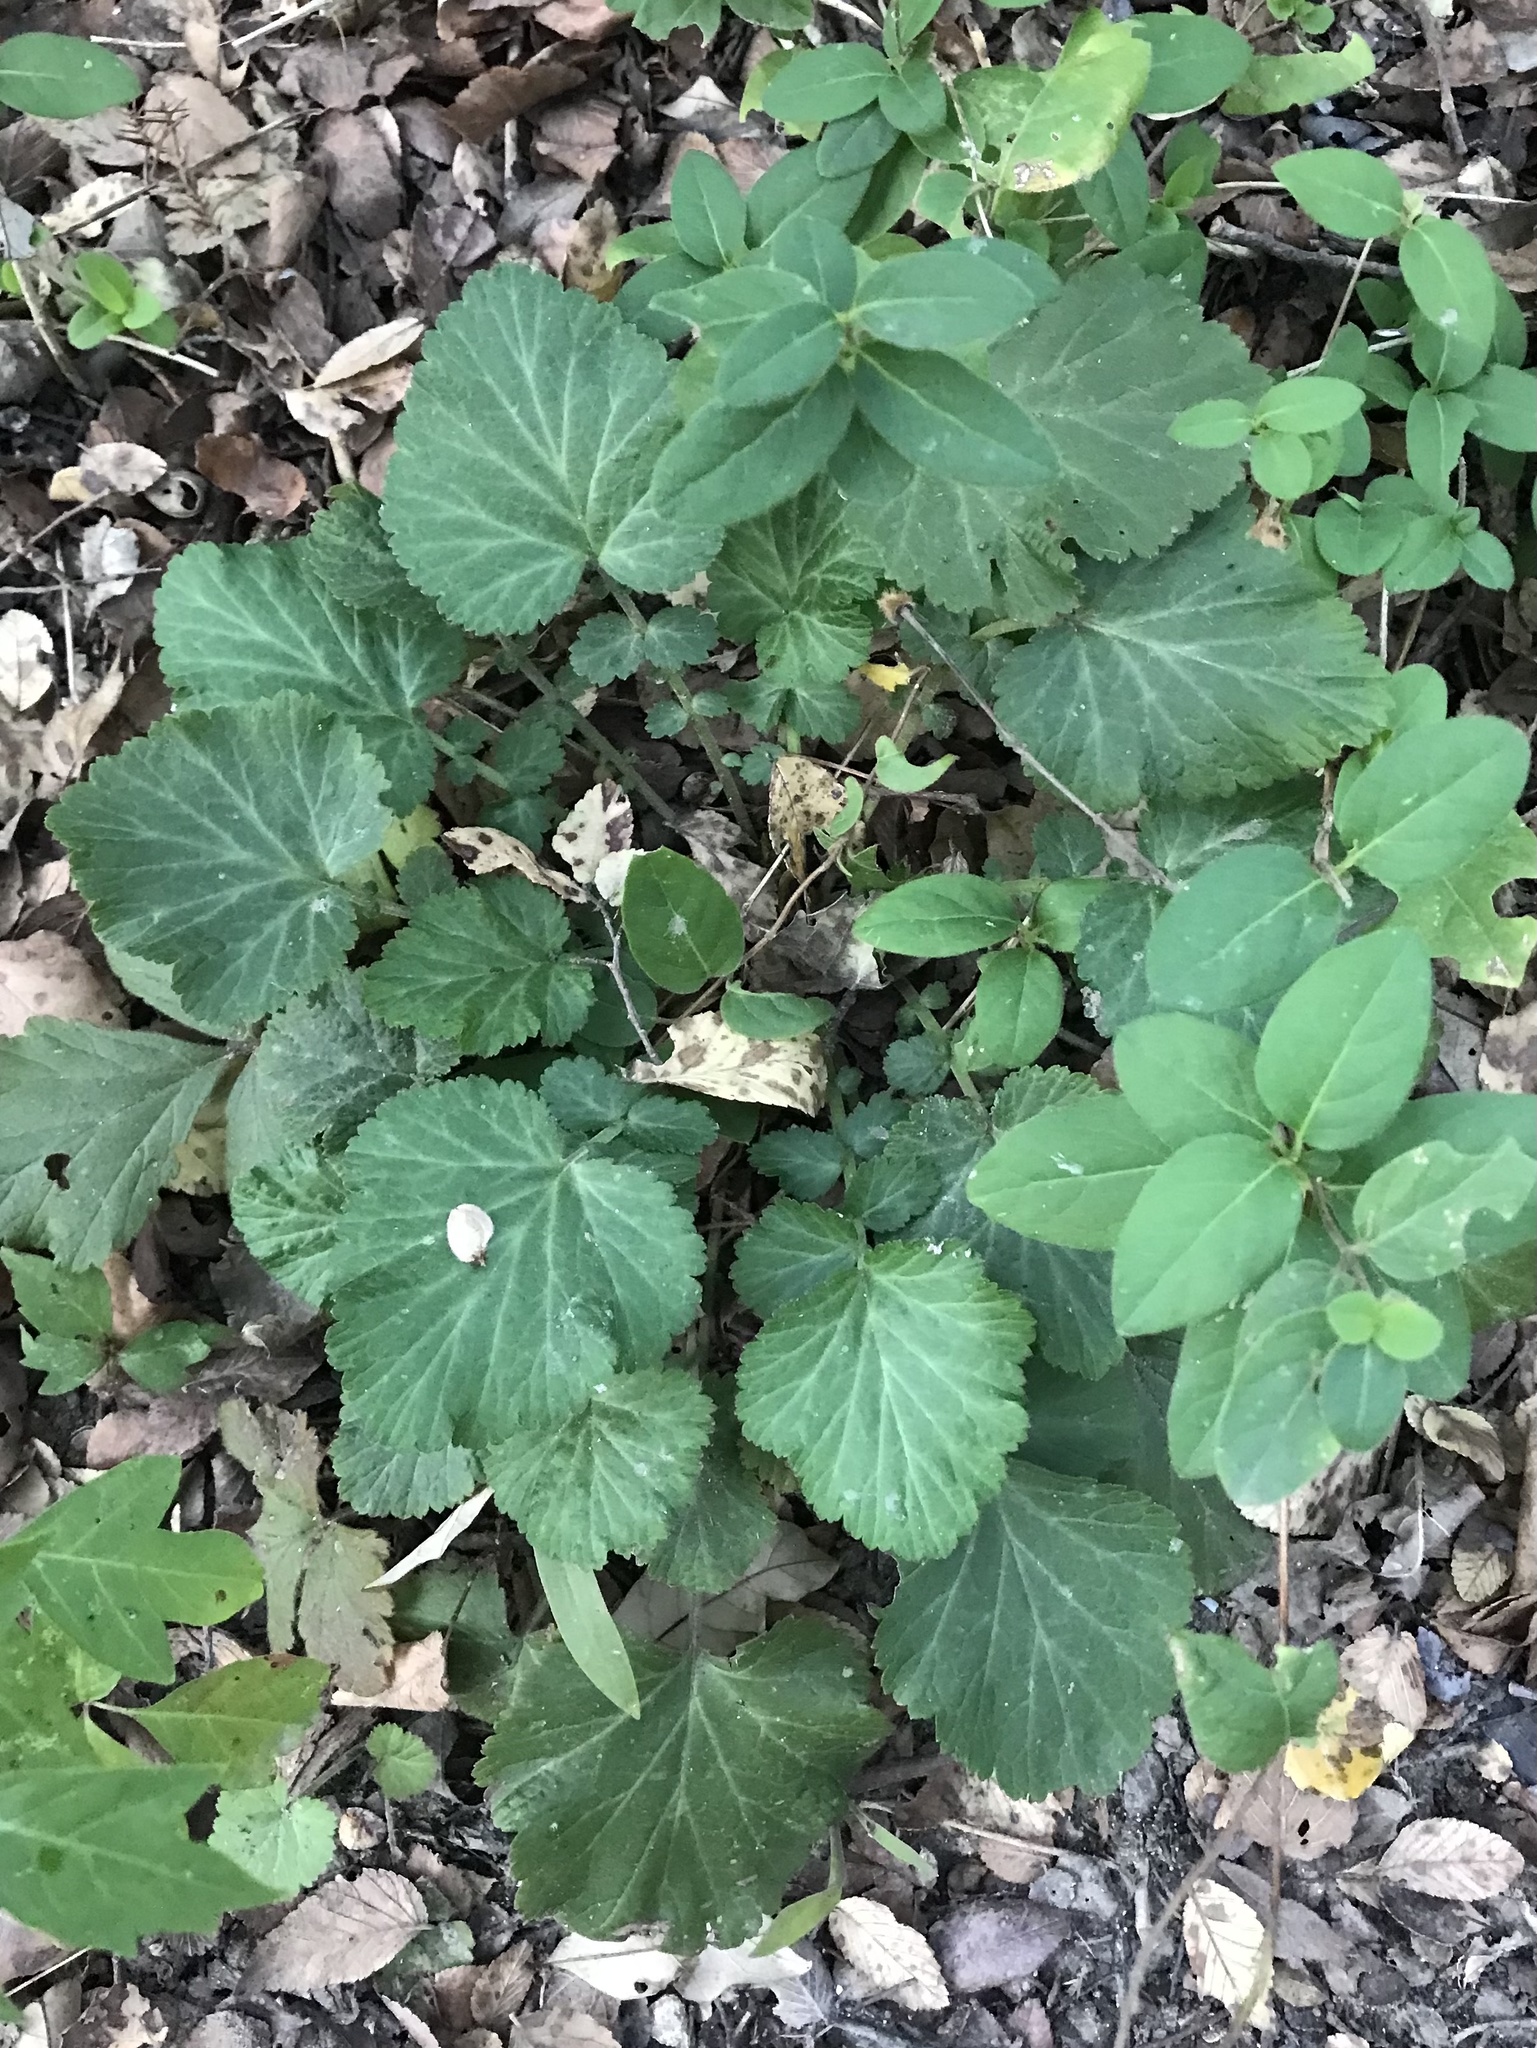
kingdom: Plantae
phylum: Tracheophyta
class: Magnoliopsida
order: Rosales
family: Rosaceae
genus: Geum
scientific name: Geum canadense
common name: White avens
